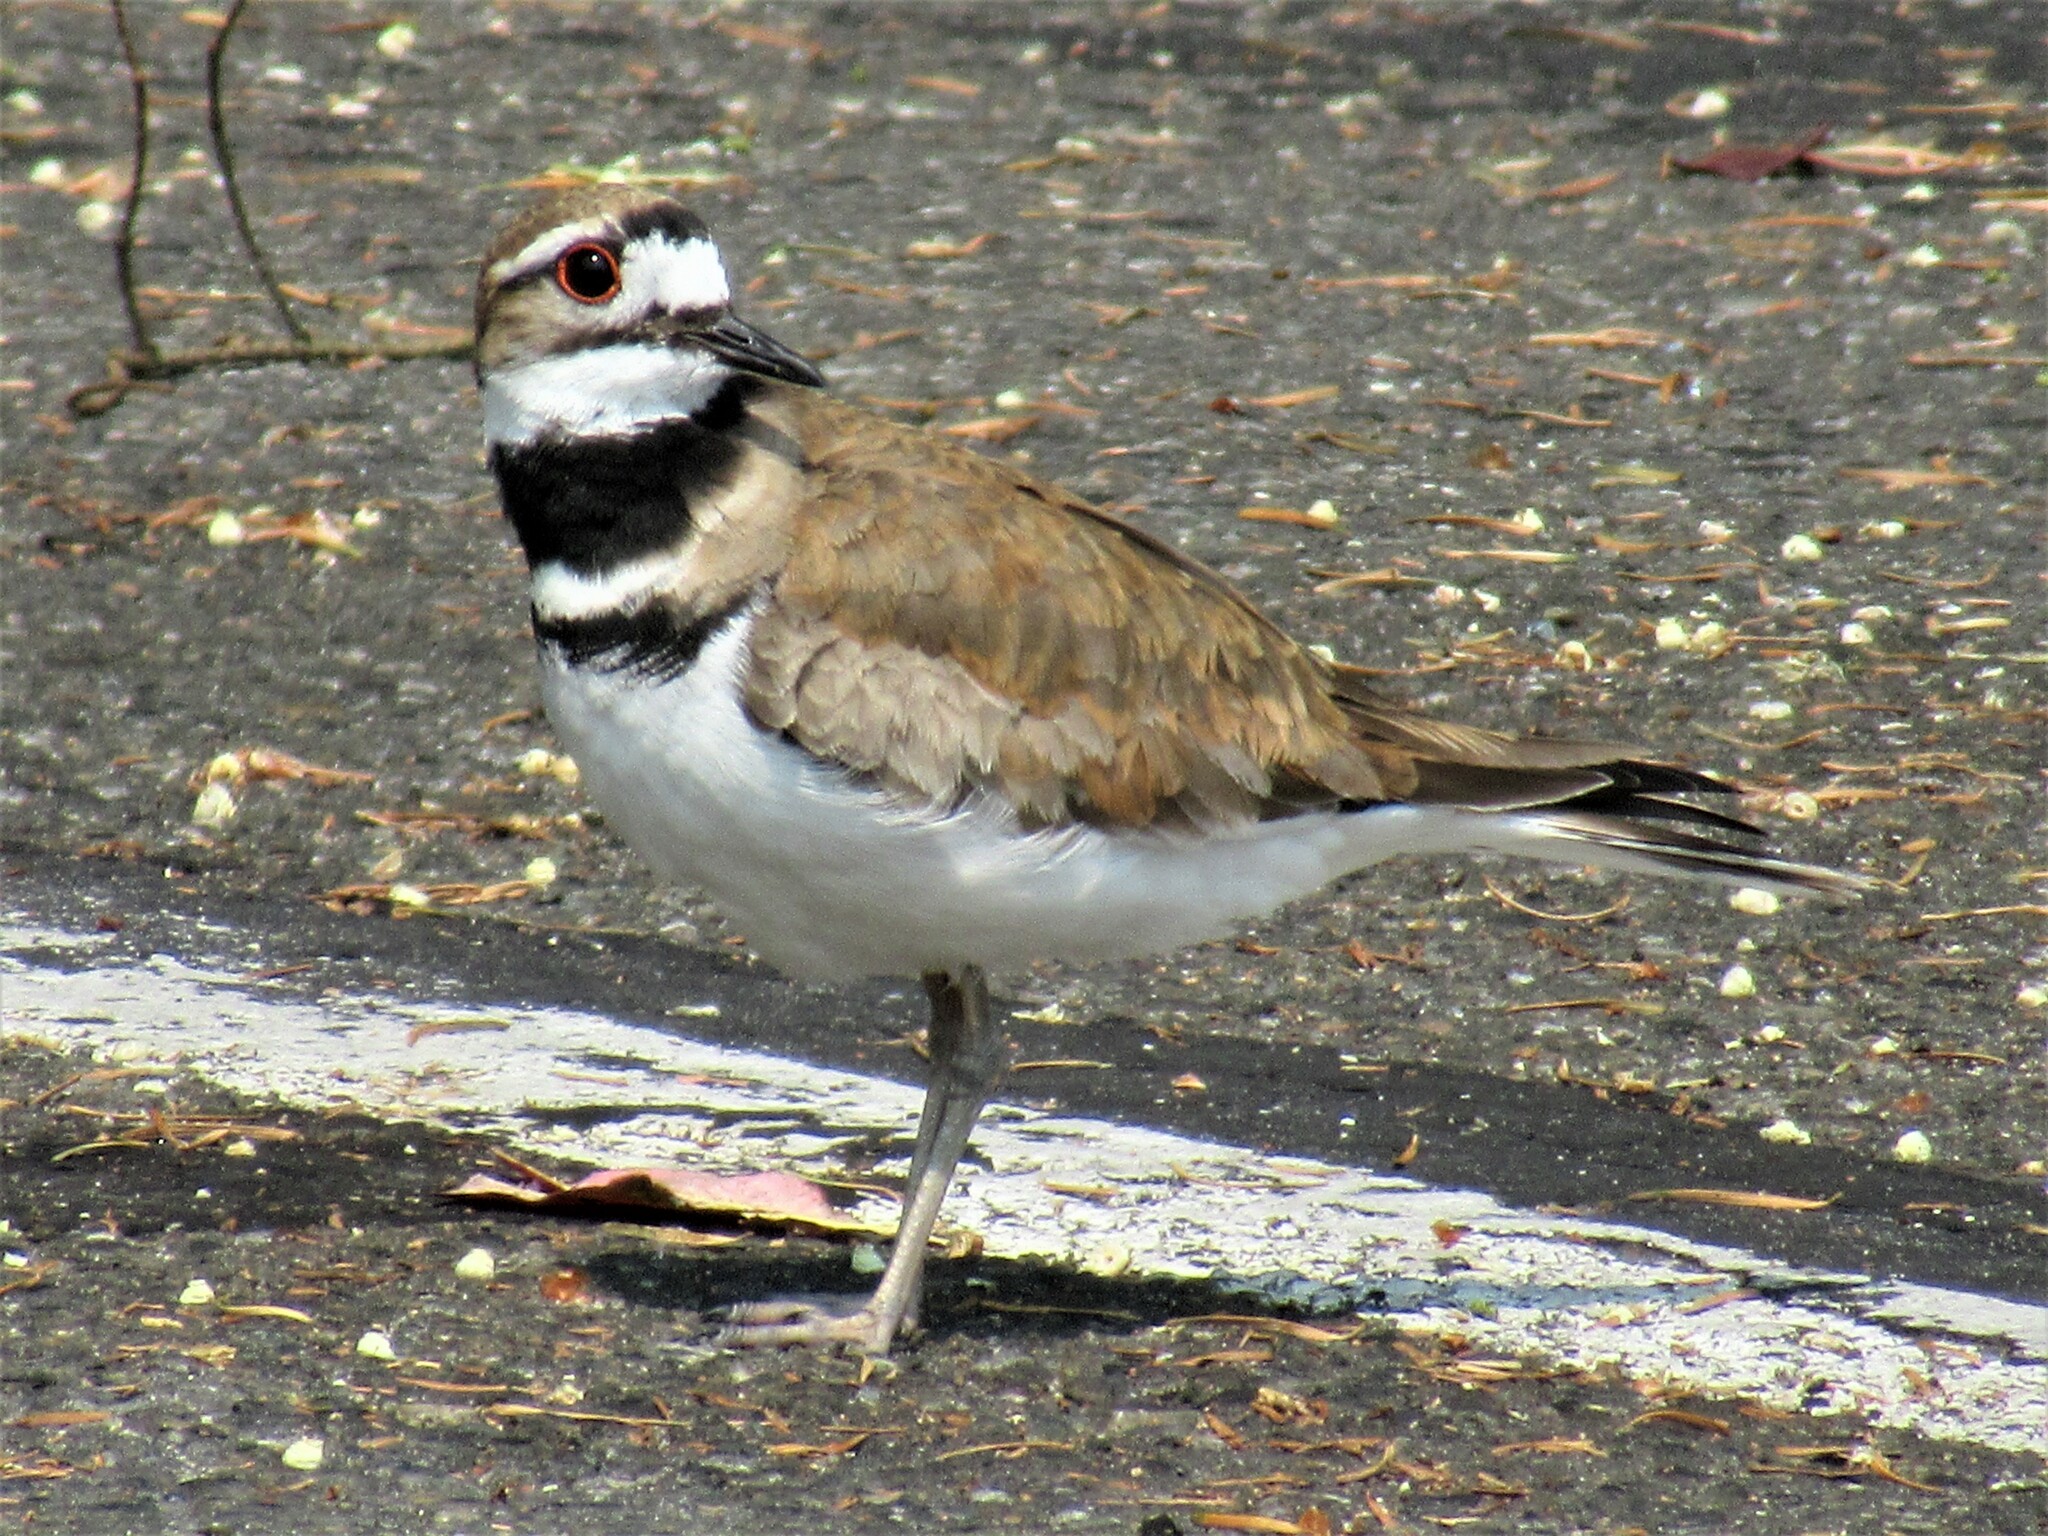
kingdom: Animalia
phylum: Chordata
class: Aves
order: Charadriiformes
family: Charadriidae
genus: Charadrius
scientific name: Charadrius vociferus
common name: Killdeer
